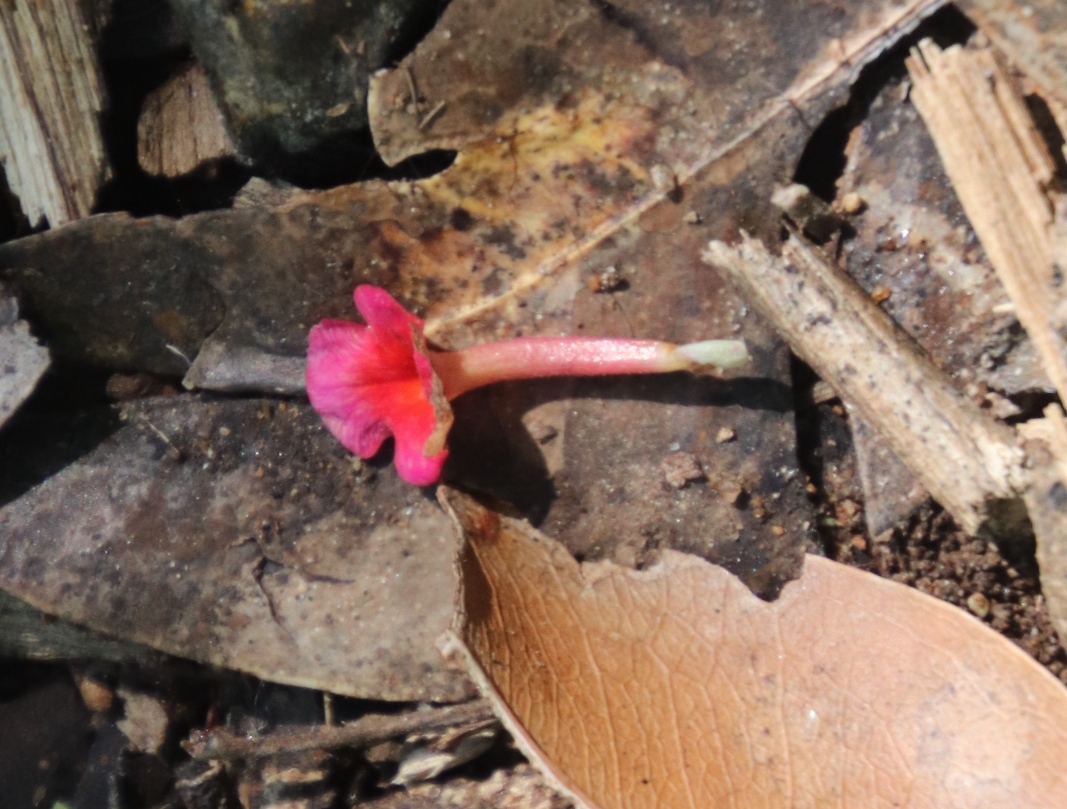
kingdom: Plantae
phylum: Tracheophyta
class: Magnoliopsida
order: Lamiales
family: Verbenaceae
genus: Lantana
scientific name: Lantana camara
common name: Lantana
